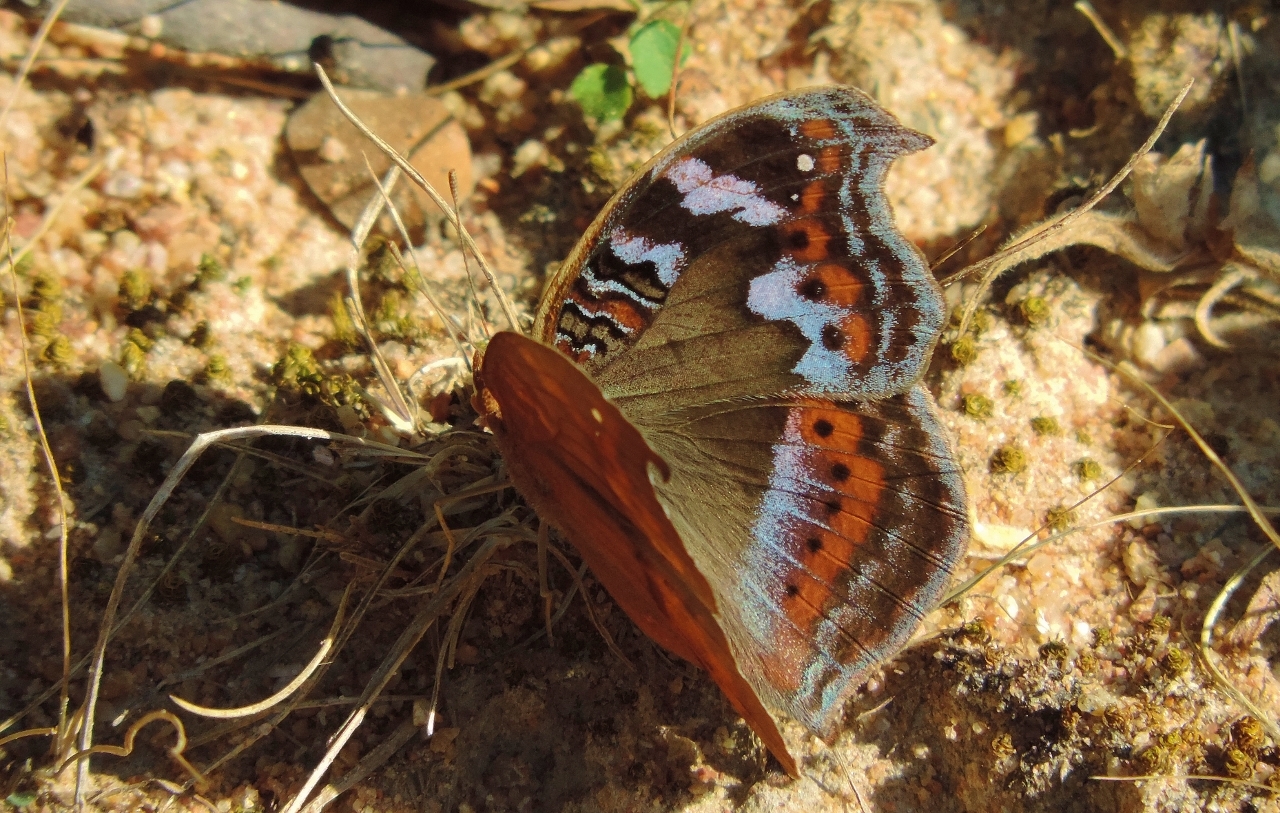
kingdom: Animalia
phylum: Arthropoda
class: Insecta
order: Lepidoptera
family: Nymphalidae
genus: Precis
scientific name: Precis actia
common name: Air commodore
